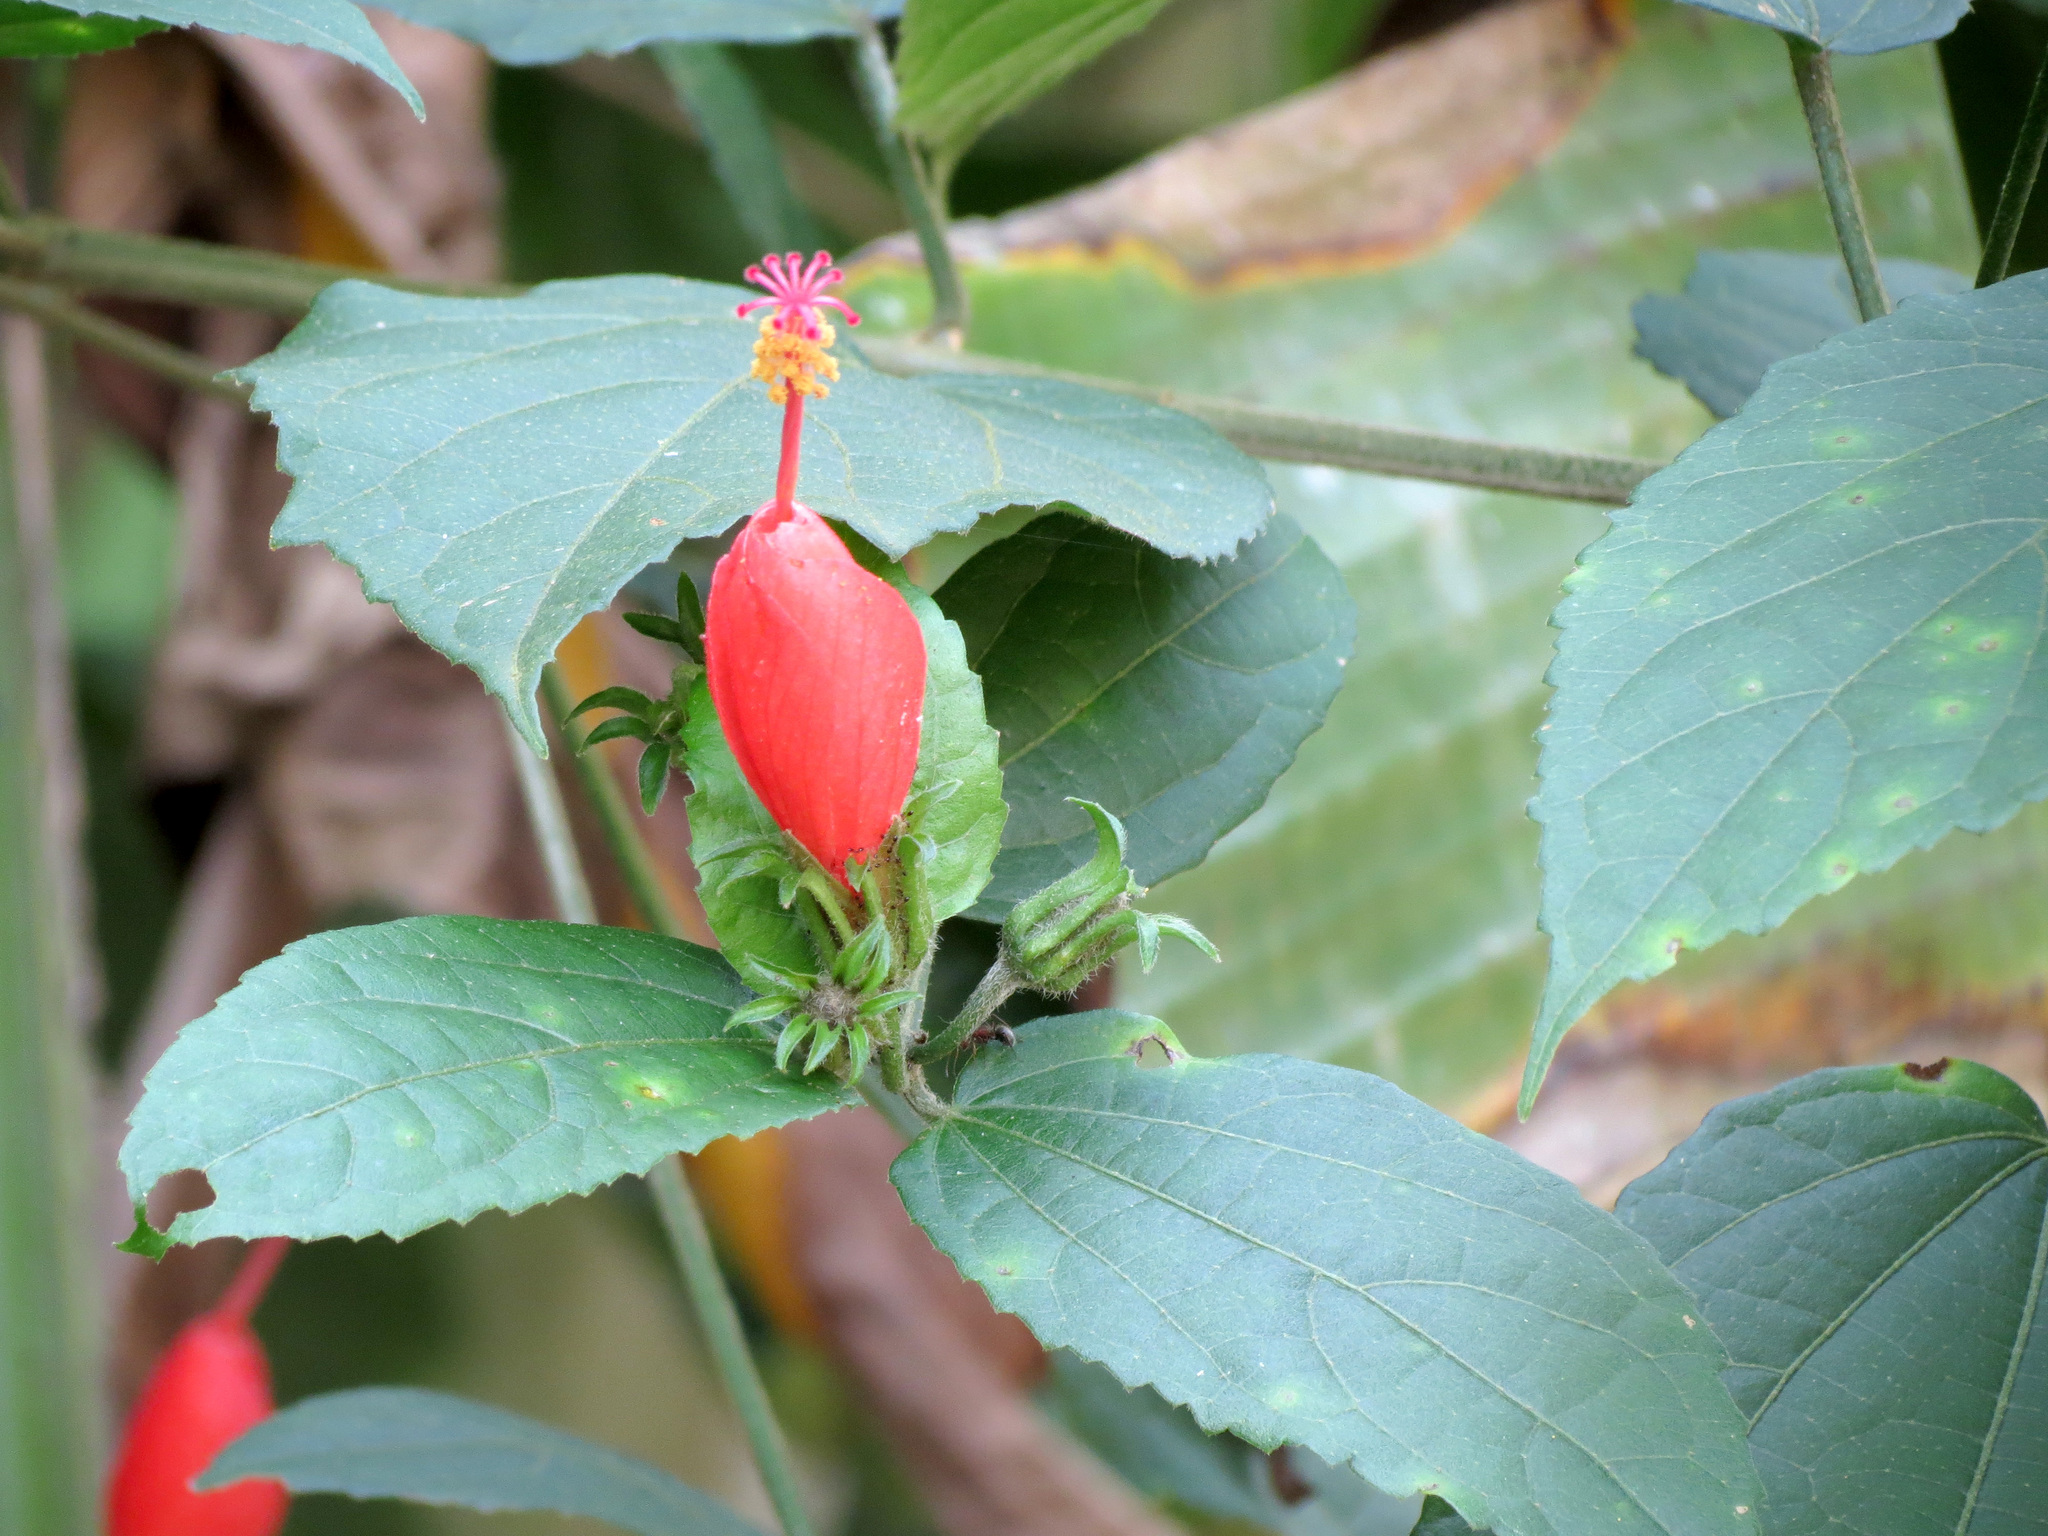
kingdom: Plantae
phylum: Tracheophyta
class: Magnoliopsida
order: Malvales
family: Malvaceae
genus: Malvaviscus
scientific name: Malvaviscus arboreus
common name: Wax mallow
